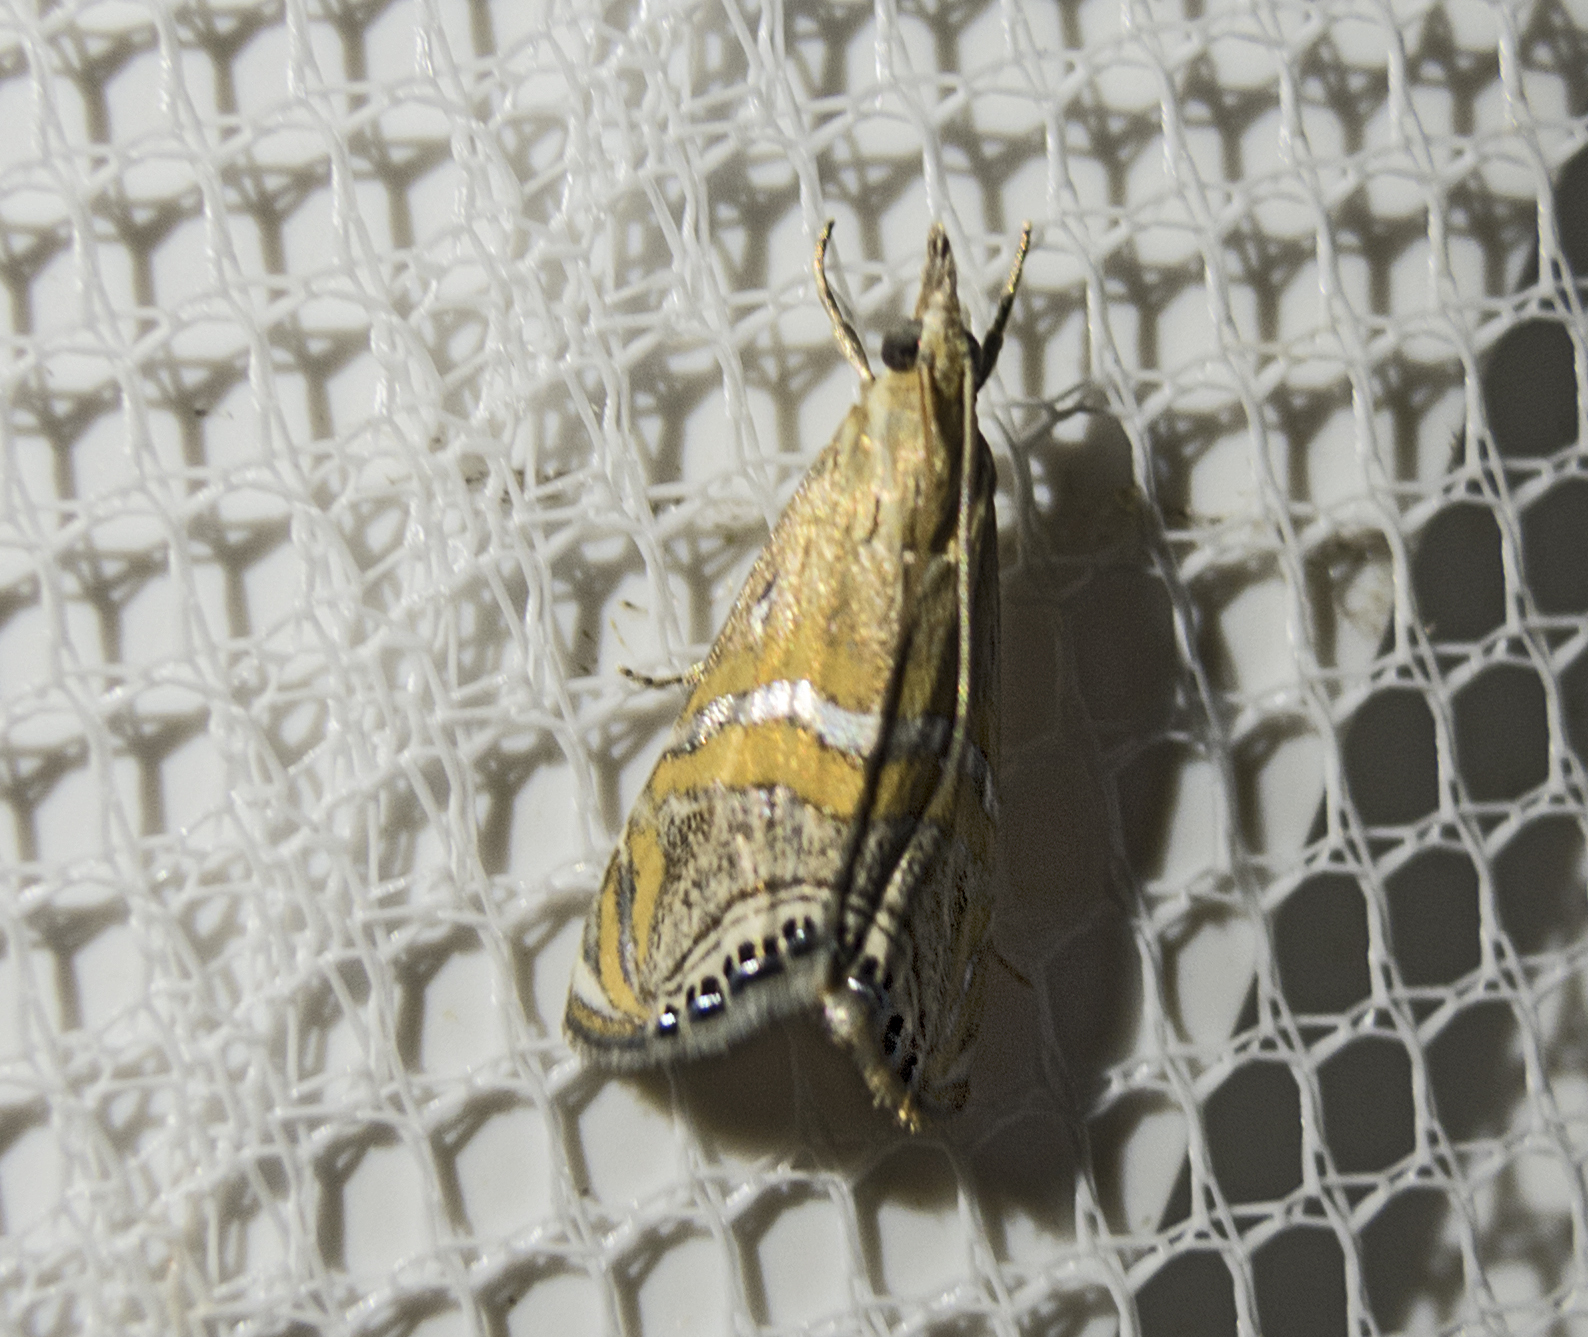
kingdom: Animalia
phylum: Arthropoda
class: Insecta
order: Lepidoptera
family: Crambidae
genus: Euchromius
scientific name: Euchromius bella
